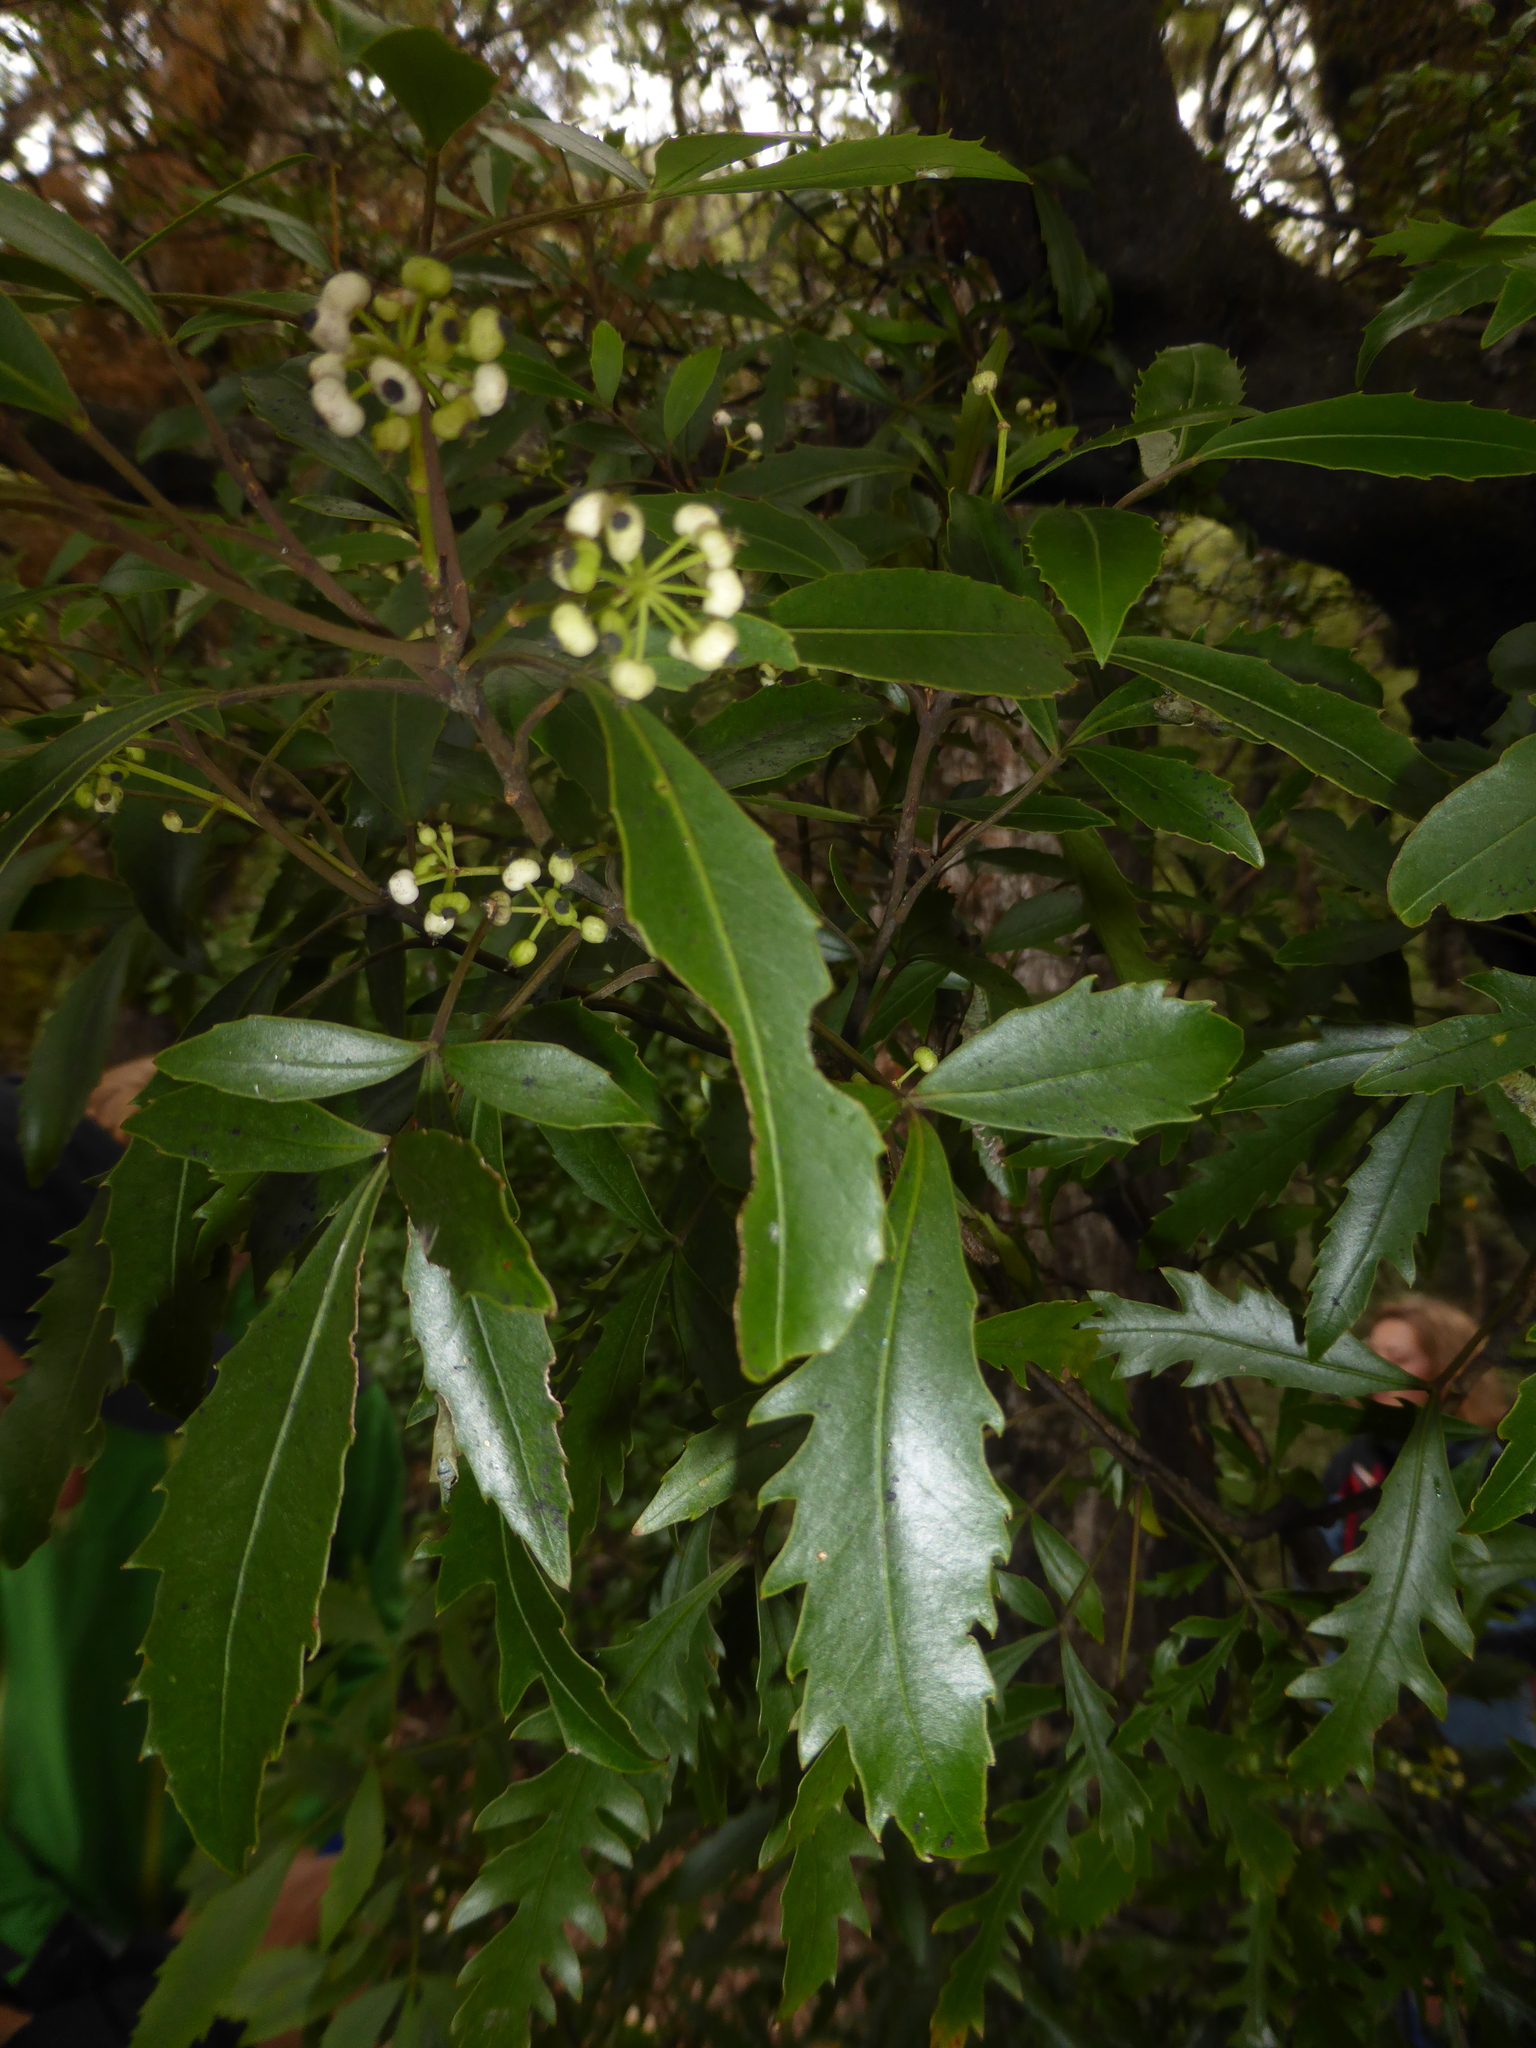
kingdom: Plantae
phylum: Tracheophyta
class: Magnoliopsida
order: Apiales
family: Araliaceae
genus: Raukaua
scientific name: Raukaua simplex
